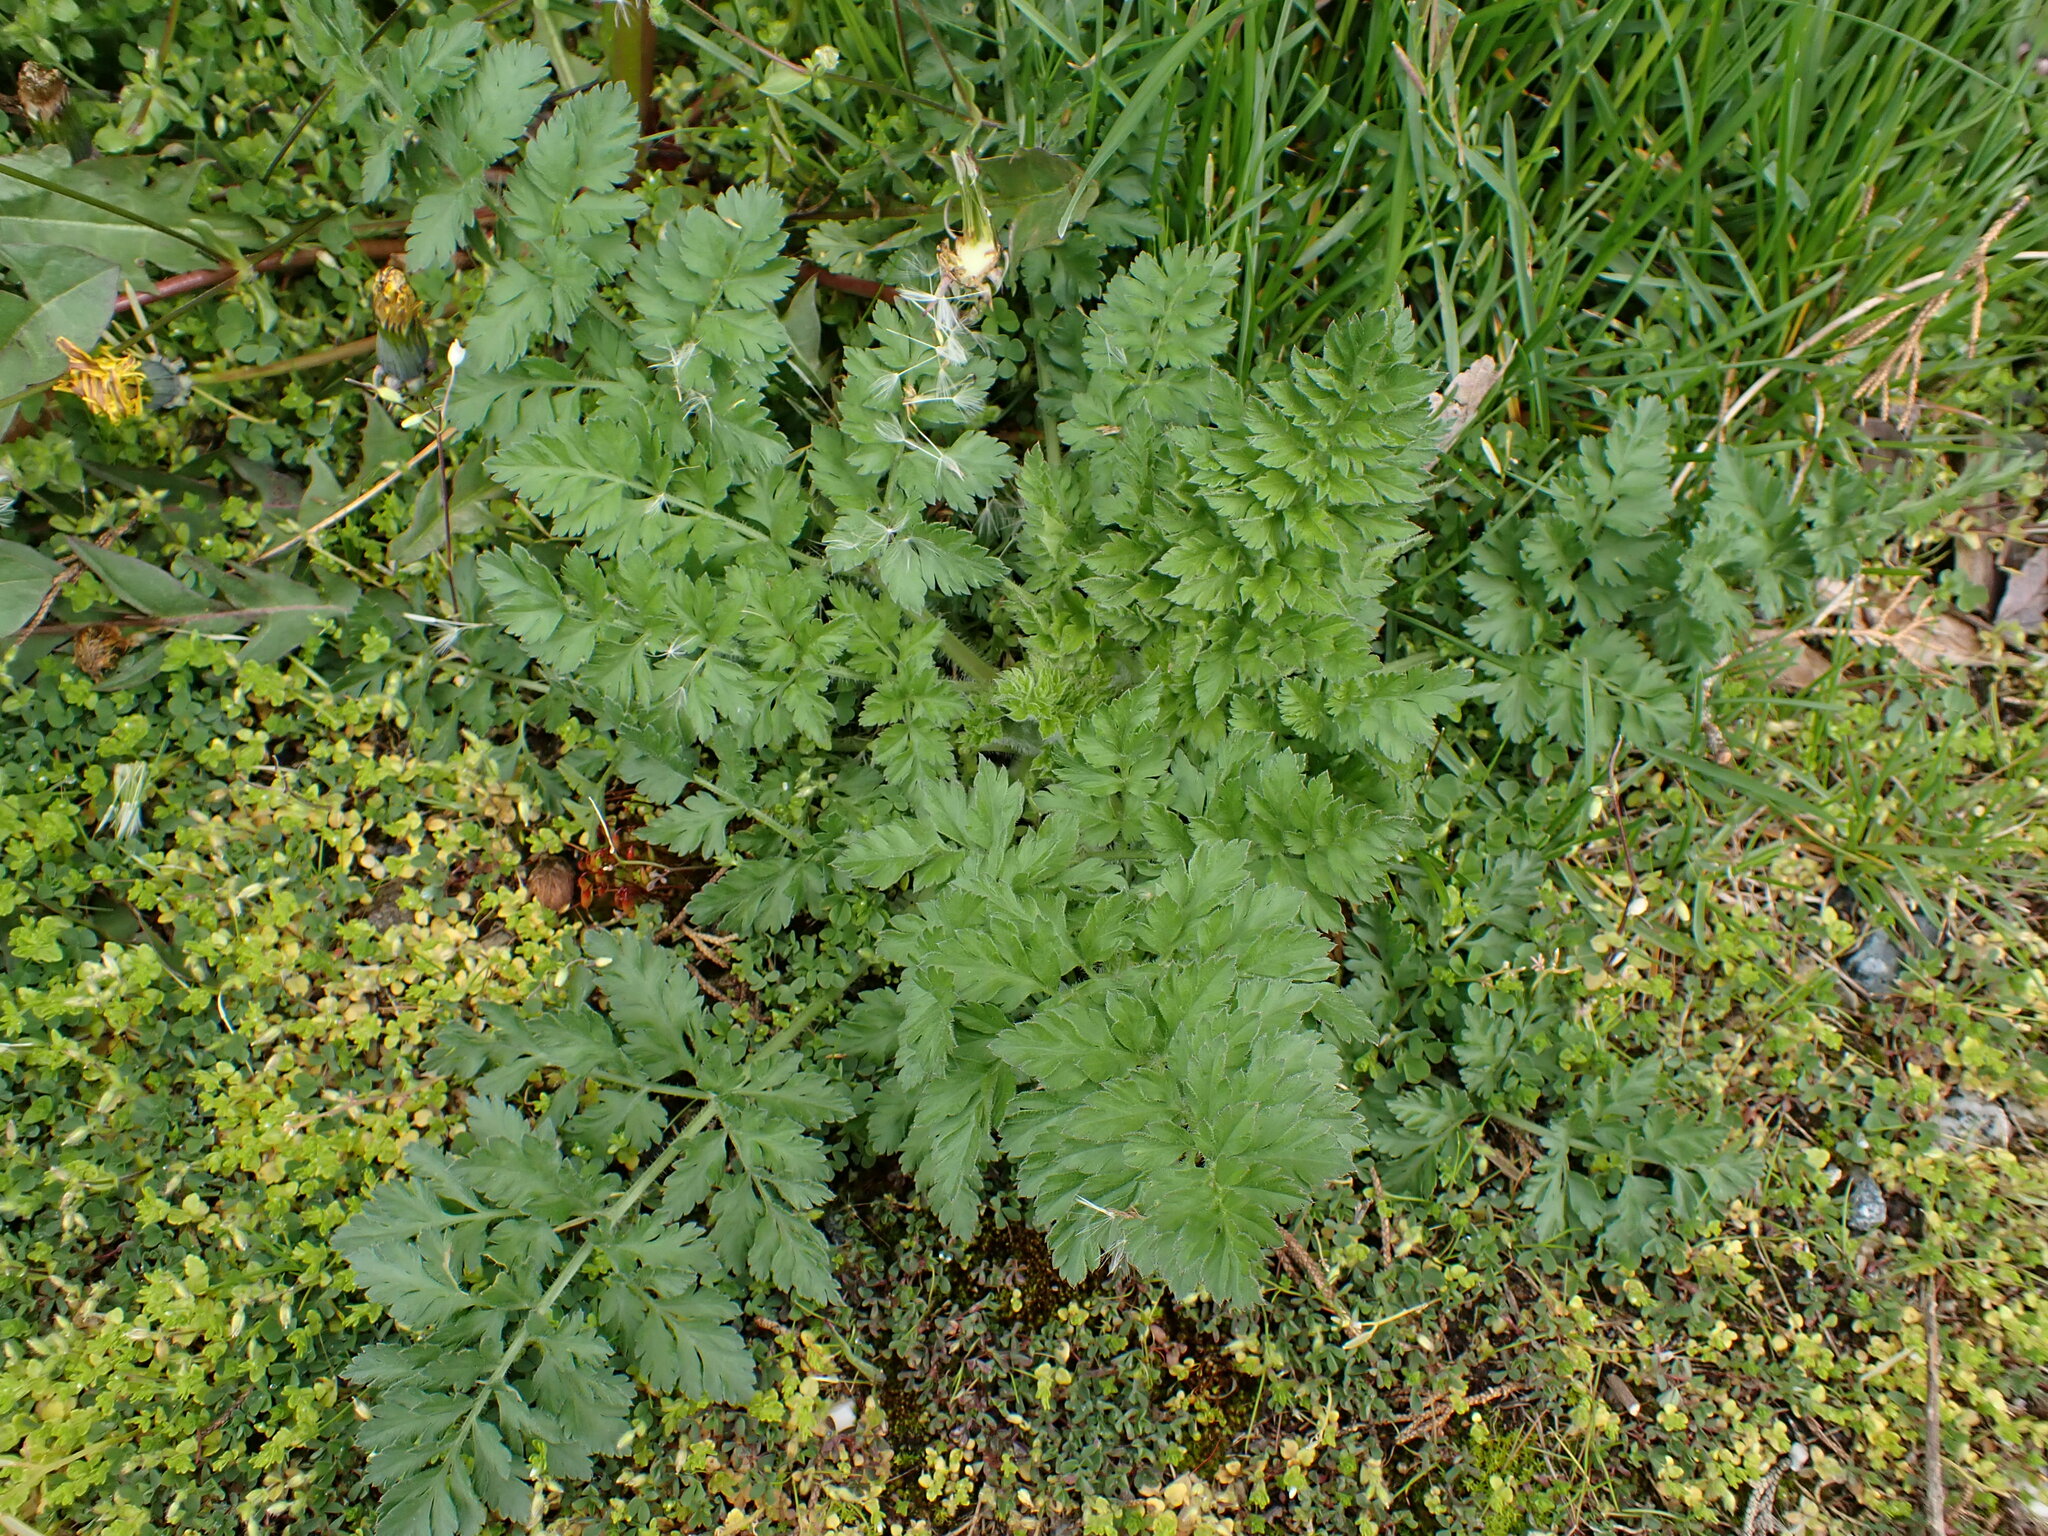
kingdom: Plantae
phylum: Tracheophyta
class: Magnoliopsida
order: Apiales
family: Apiaceae
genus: Daucus
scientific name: Daucus carota
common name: Wild carrot
